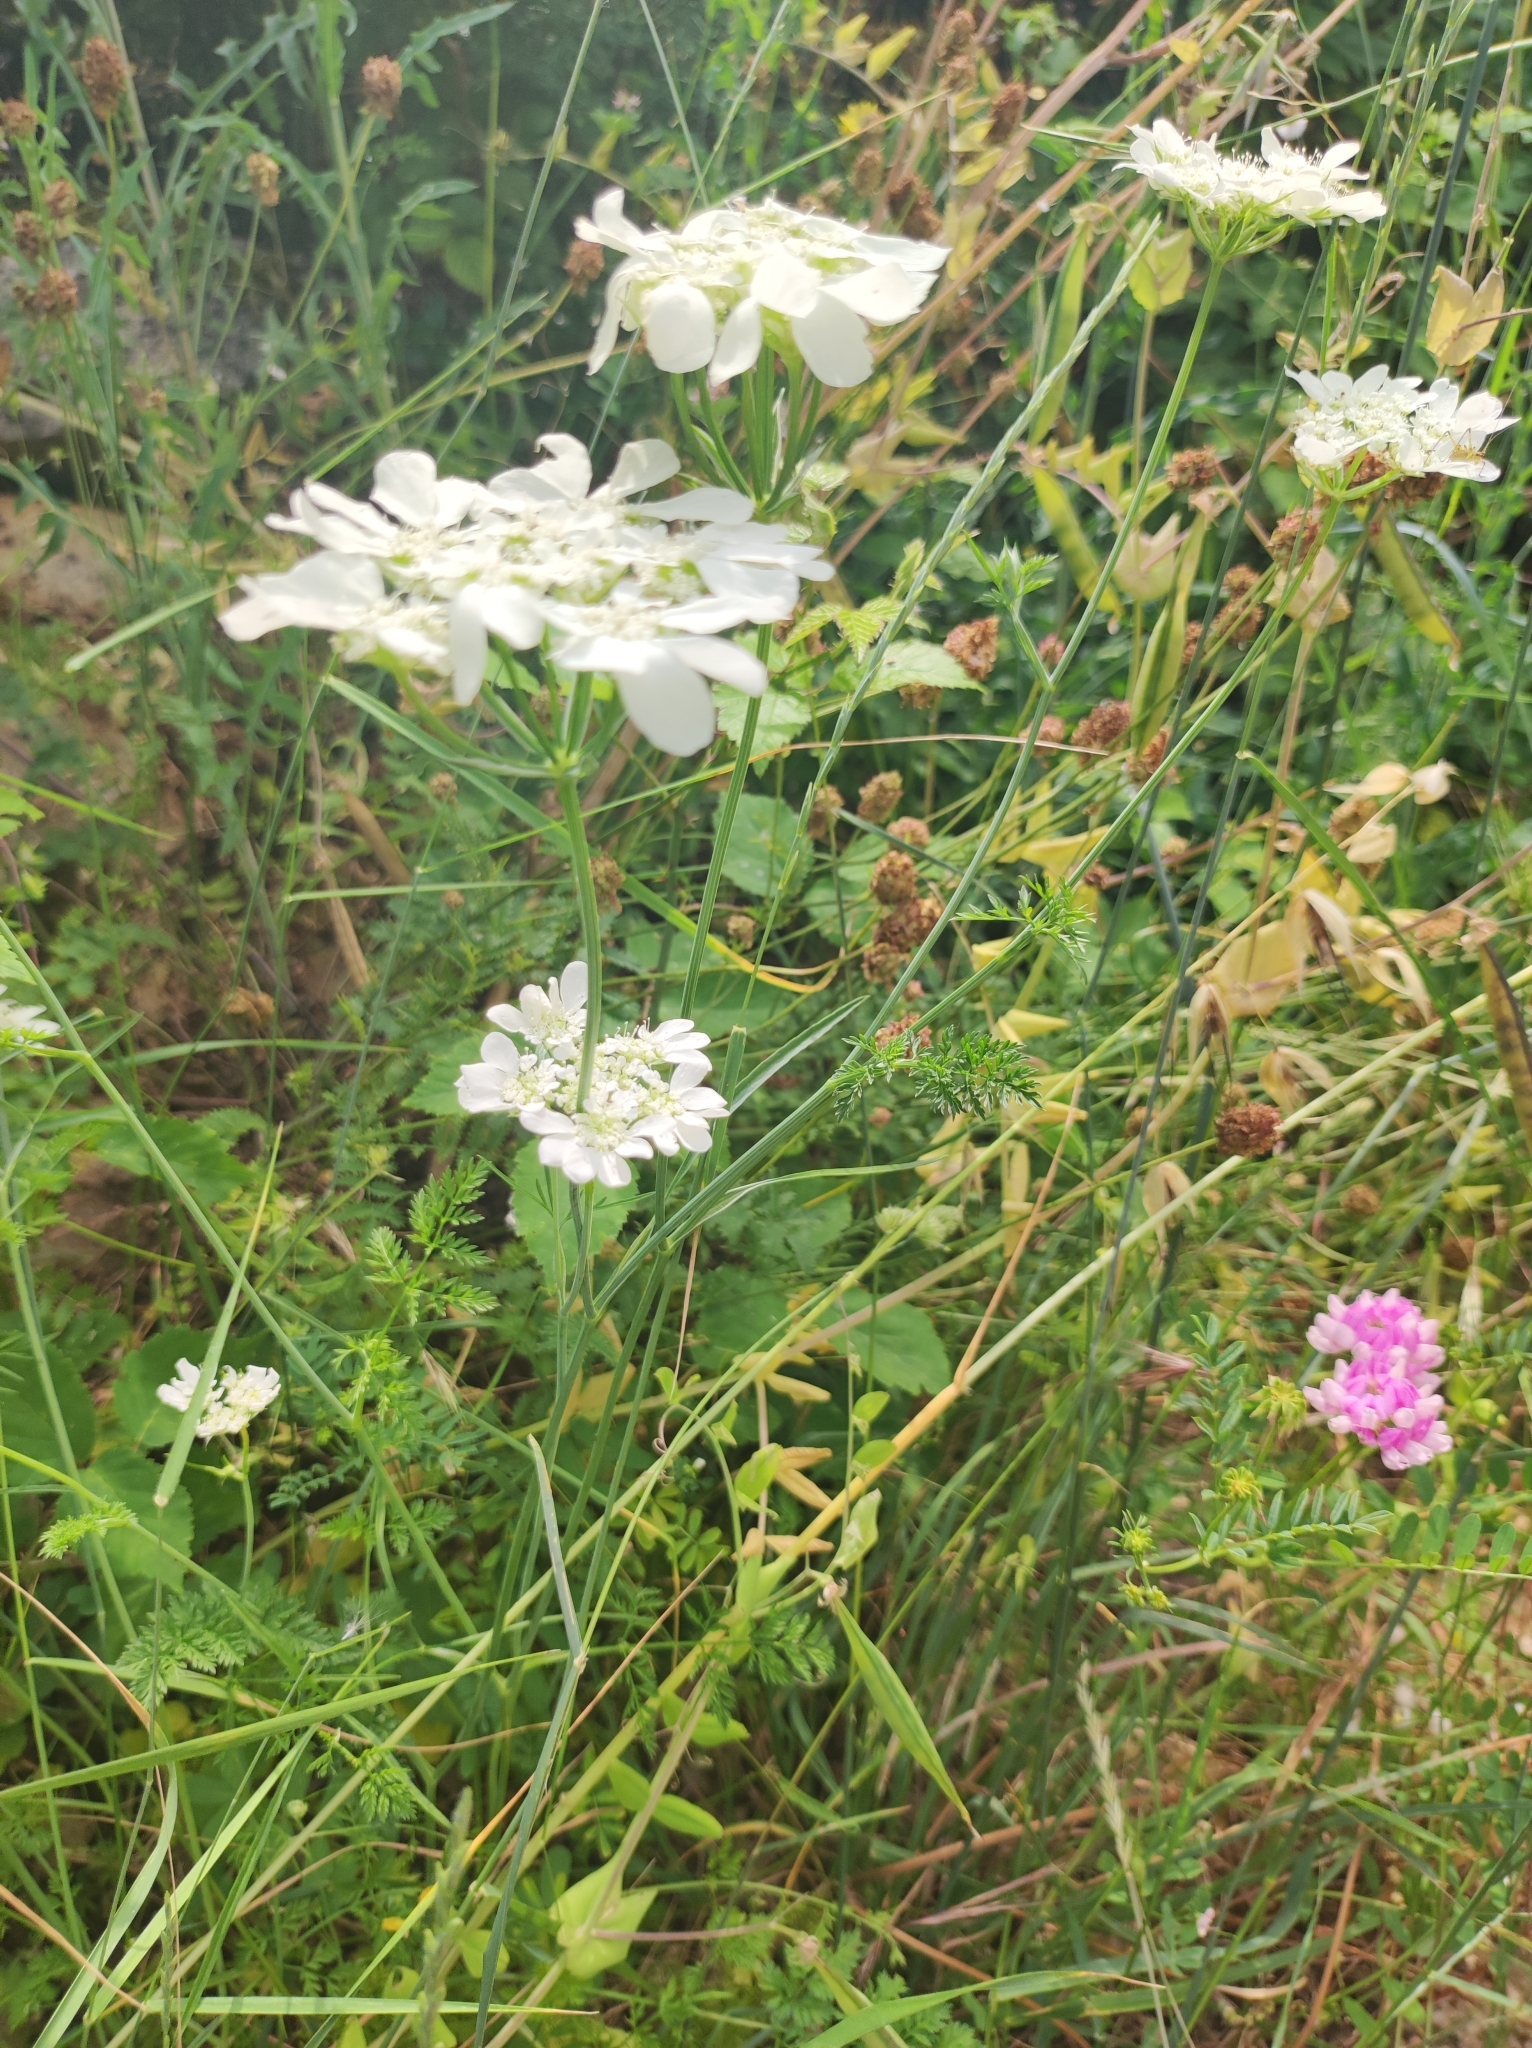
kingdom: Plantae
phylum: Tracheophyta
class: Magnoliopsida
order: Apiales
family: Apiaceae
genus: Orlaya
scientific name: Orlaya grandiflora
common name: White lace flower
